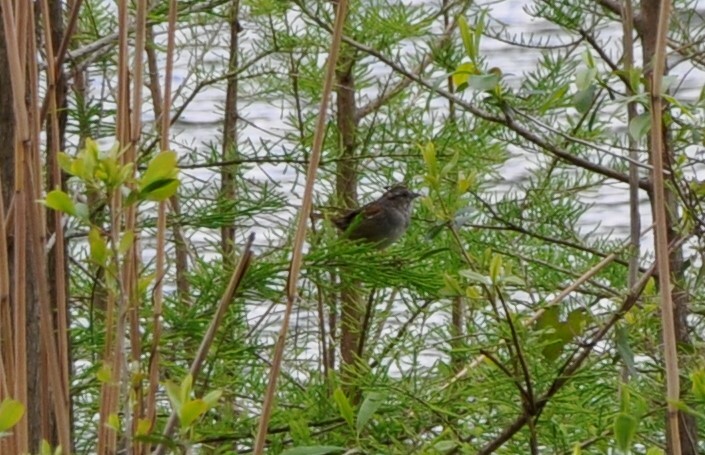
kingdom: Animalia
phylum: Chordata
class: Aves
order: Passeriformes
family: Passerellidae
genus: Melospiza
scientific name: Melospiza georgiana
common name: Swamp sparrow
